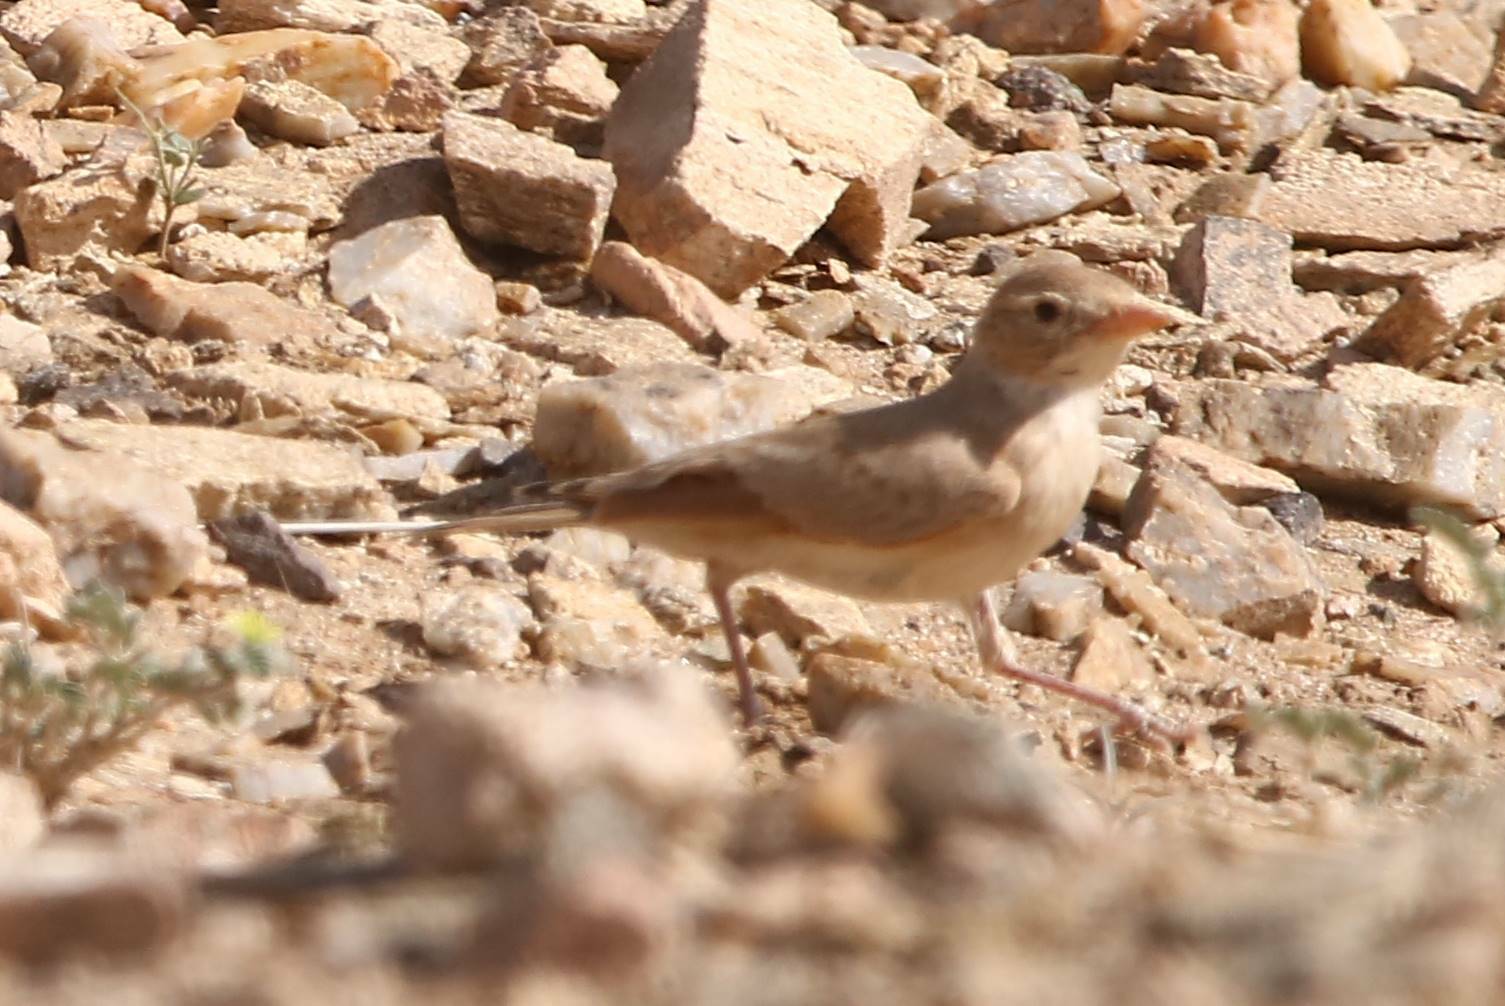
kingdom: Animalia
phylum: Chordata
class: Aves
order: Passeriformes
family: Alaudidae
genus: Ammomanes
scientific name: Ammomanes deserti
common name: Desert lark
